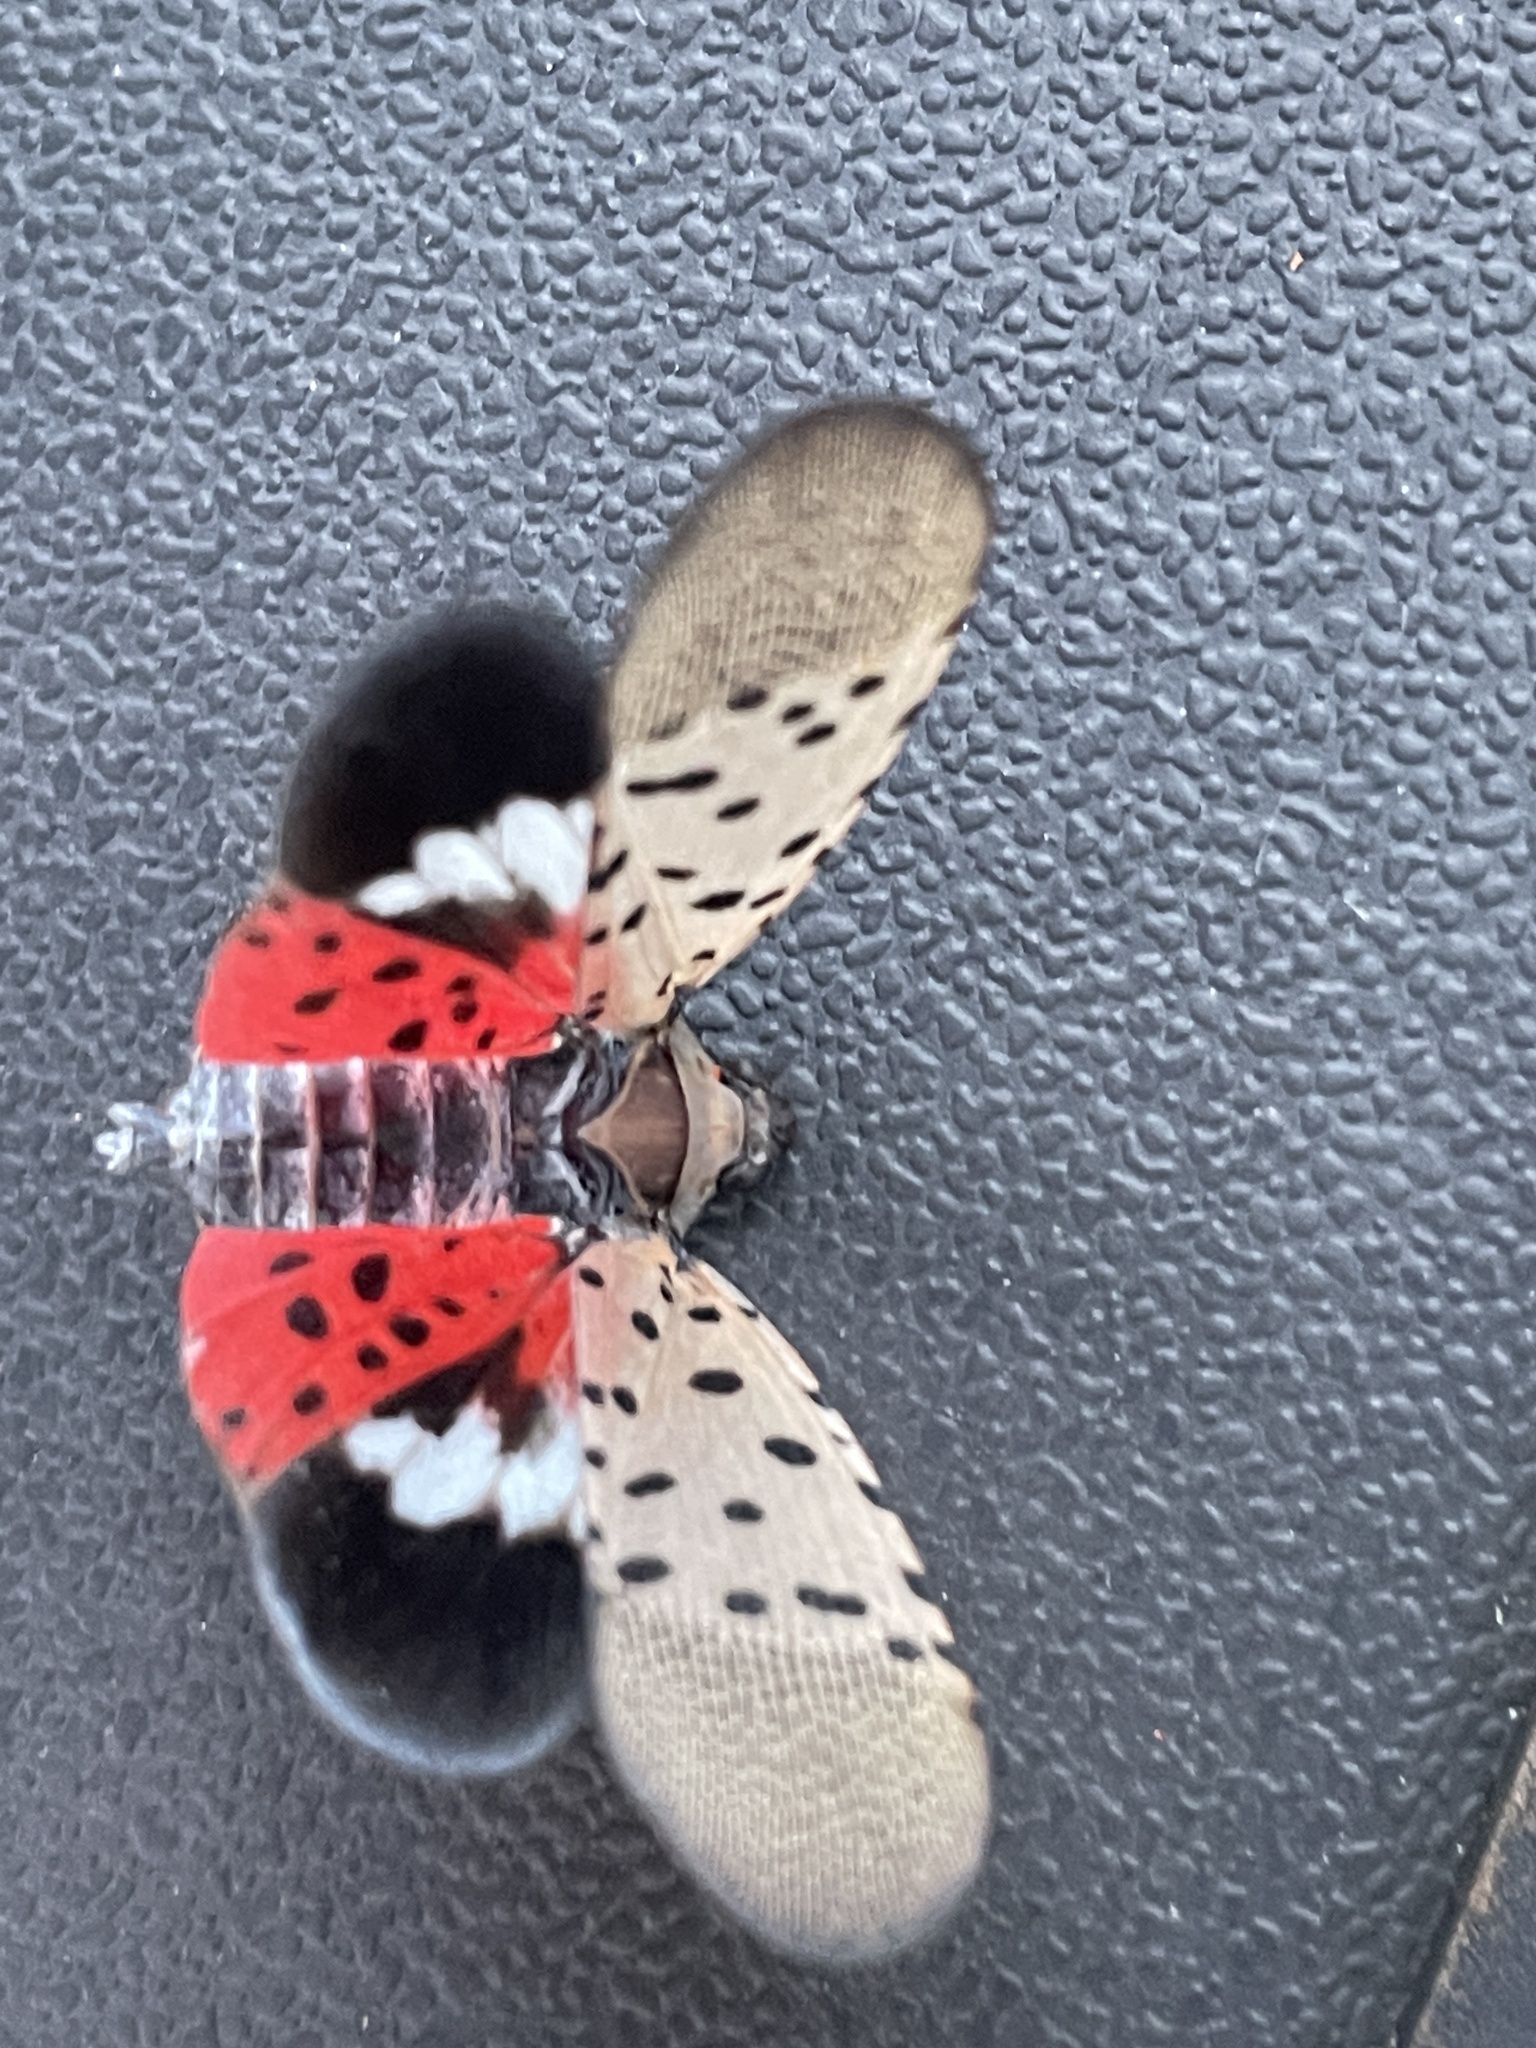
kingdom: Animalia
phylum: Arthropoda
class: Insecta
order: Hemiptera
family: Fulgoridae
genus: Lycorma
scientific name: Lycorma delicatula
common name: Spotted lanternfly
